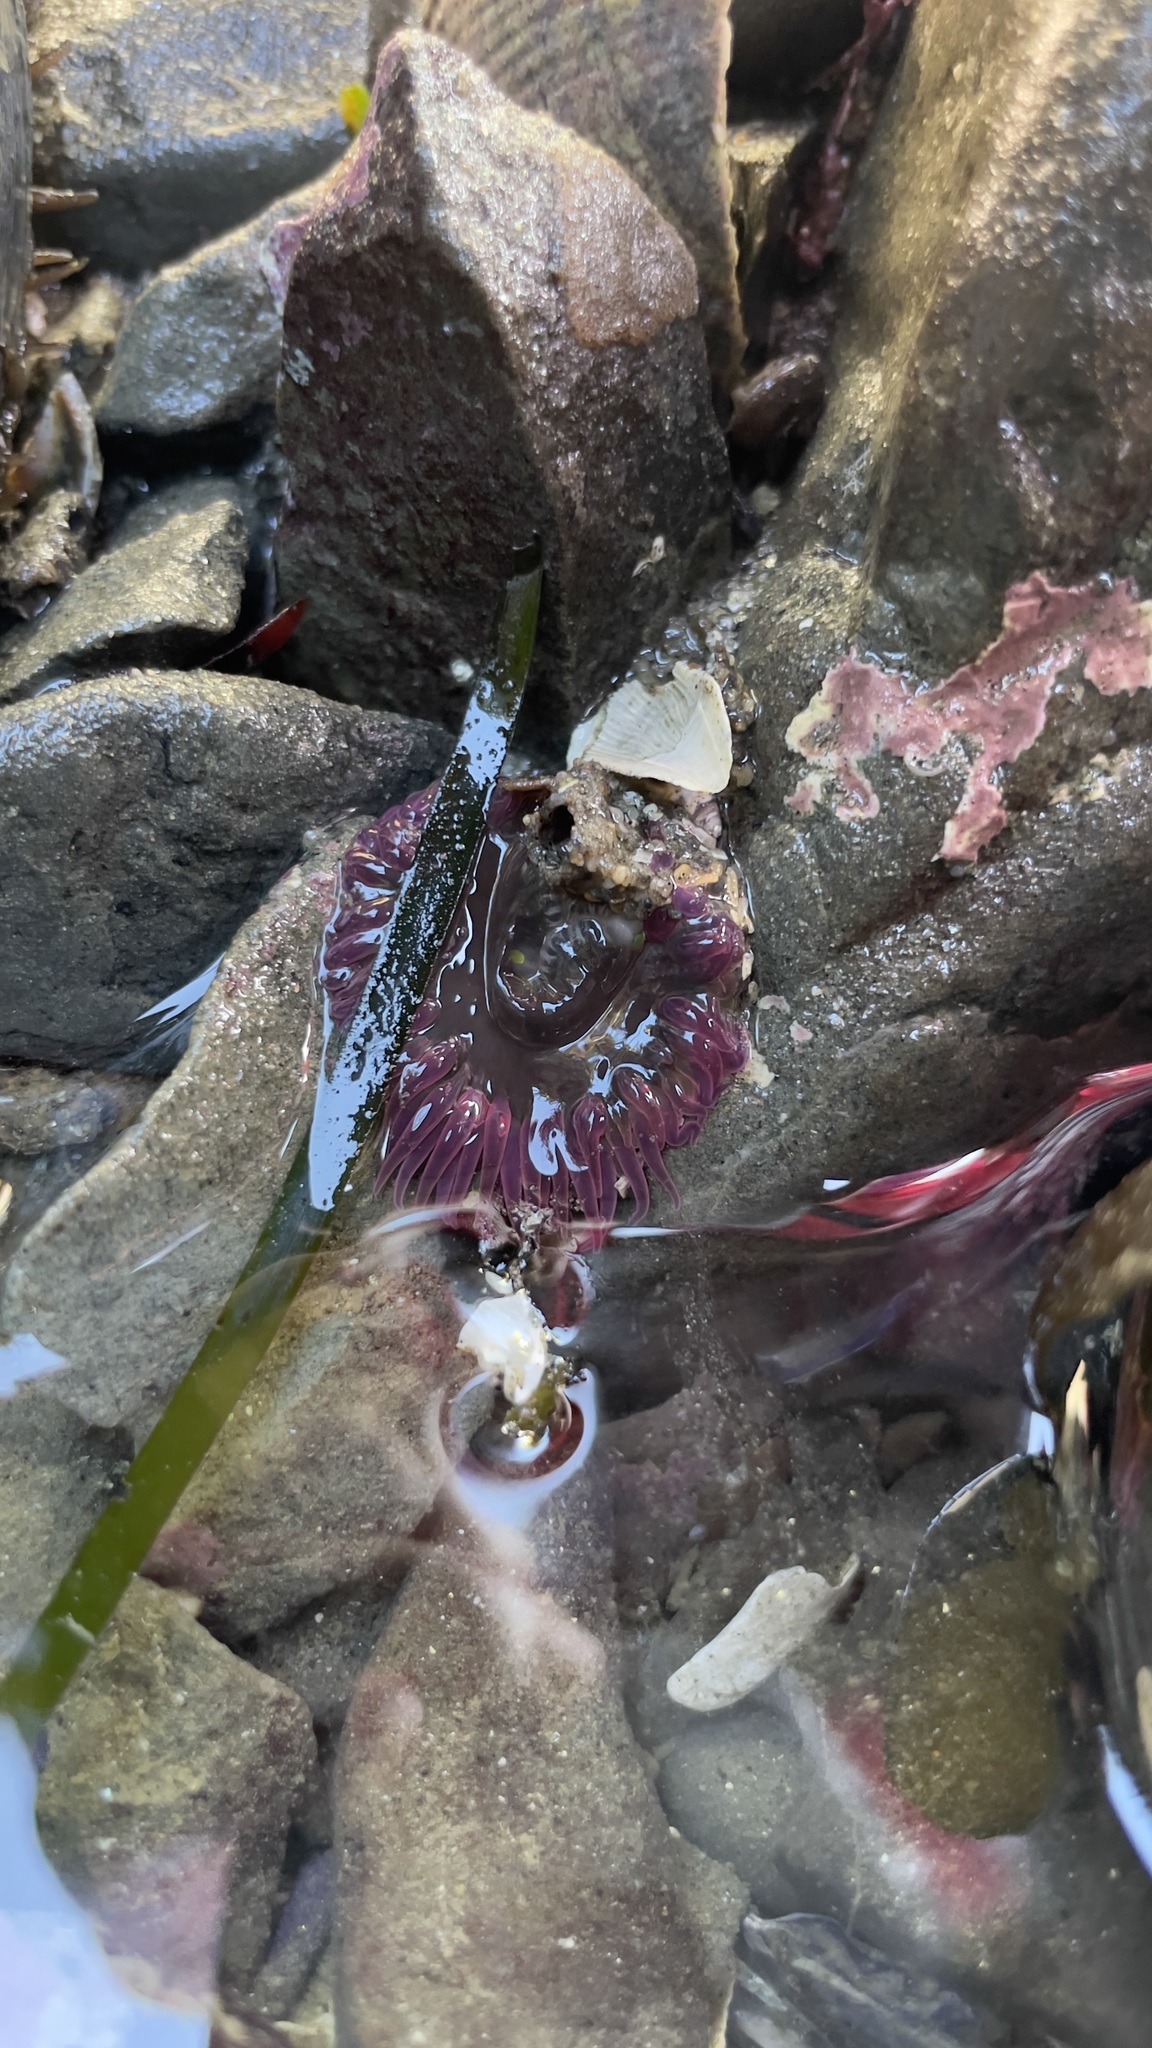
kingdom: Animalia
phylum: Cnidaria
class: Anthozoa
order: Actiniaria
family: Actiniidae
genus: Anthopleura
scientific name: Anthopleura artemisia
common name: Buried sea anemone
